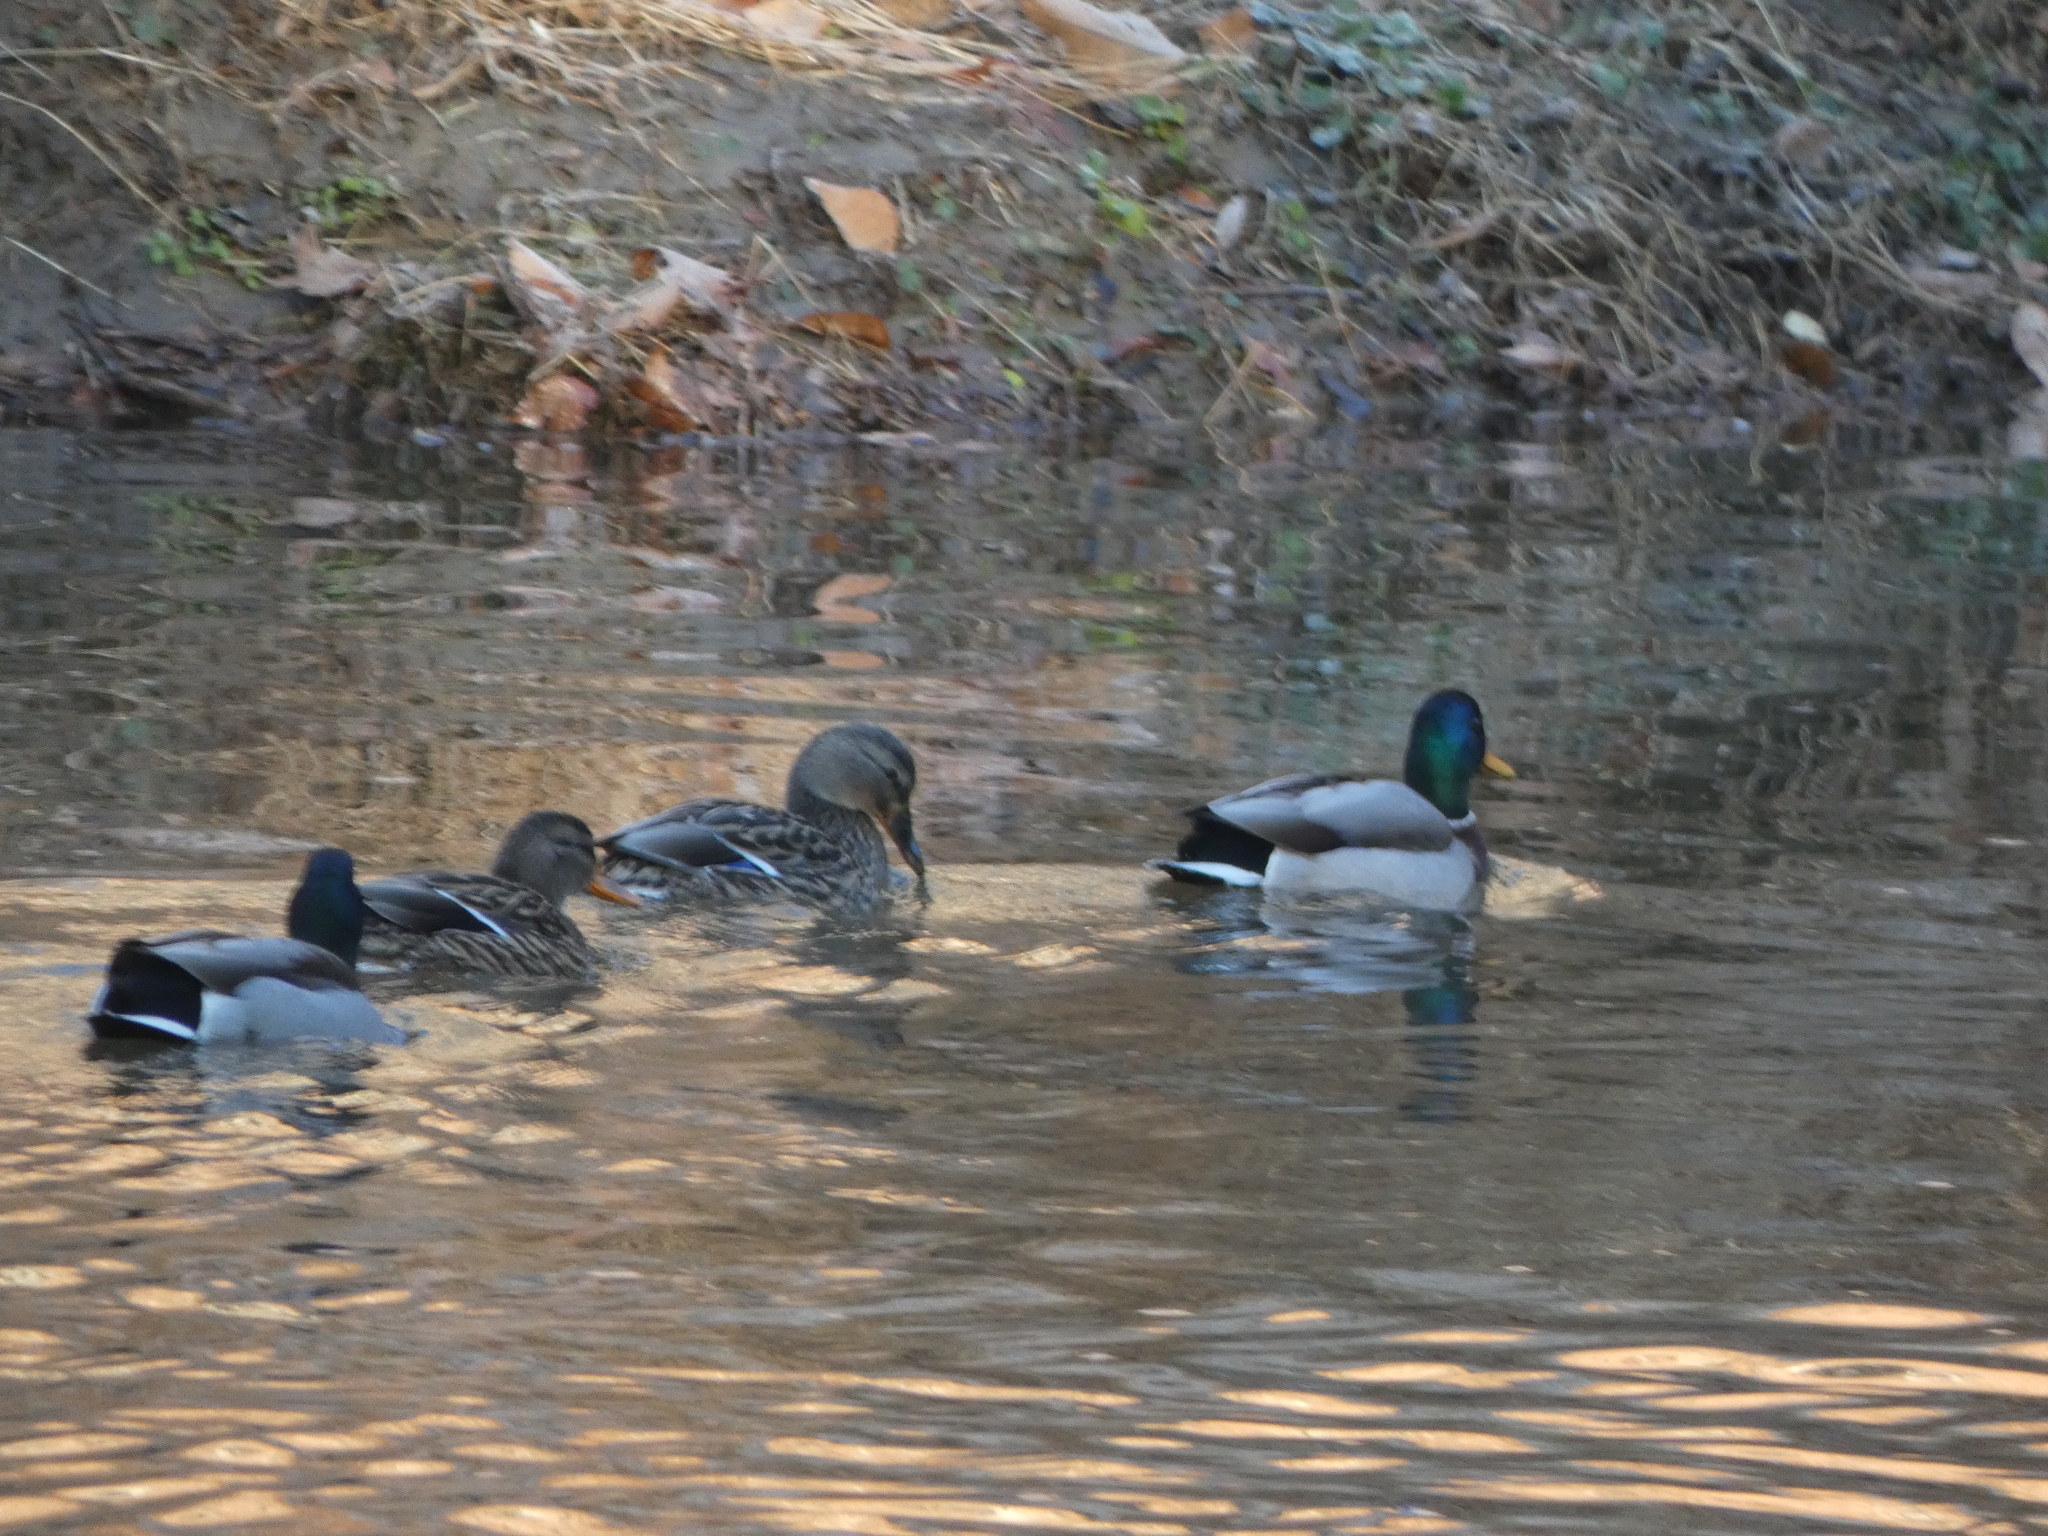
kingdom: Animalia
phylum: Chordata
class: Aves
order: Anseriformes
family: Anatidae
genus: Anas
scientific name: Anas platyrhynchos
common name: Mallard
